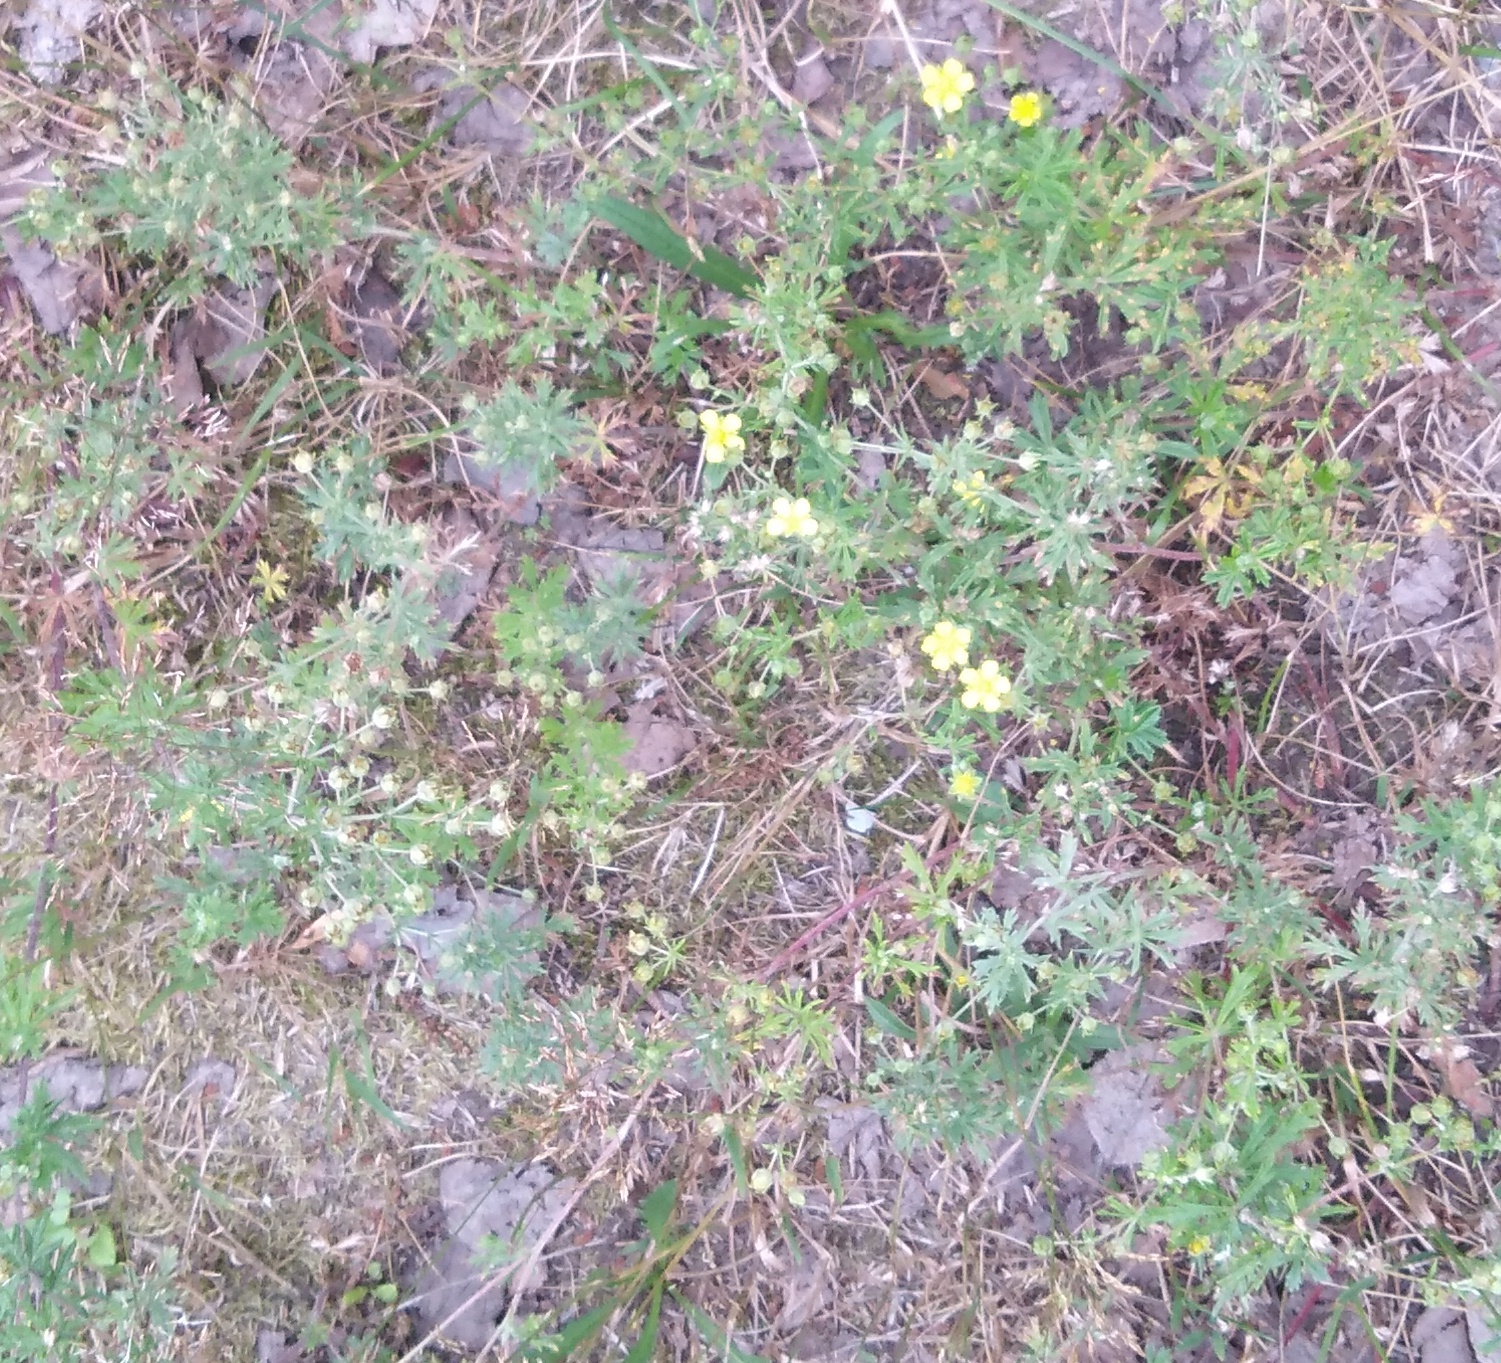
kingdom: Plantae
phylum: Tracheophyta
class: Magnoliopsida
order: Rosales
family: Rosaceae
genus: Potentilla
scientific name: Potentilla argentea
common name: Hoary cinquefoil
